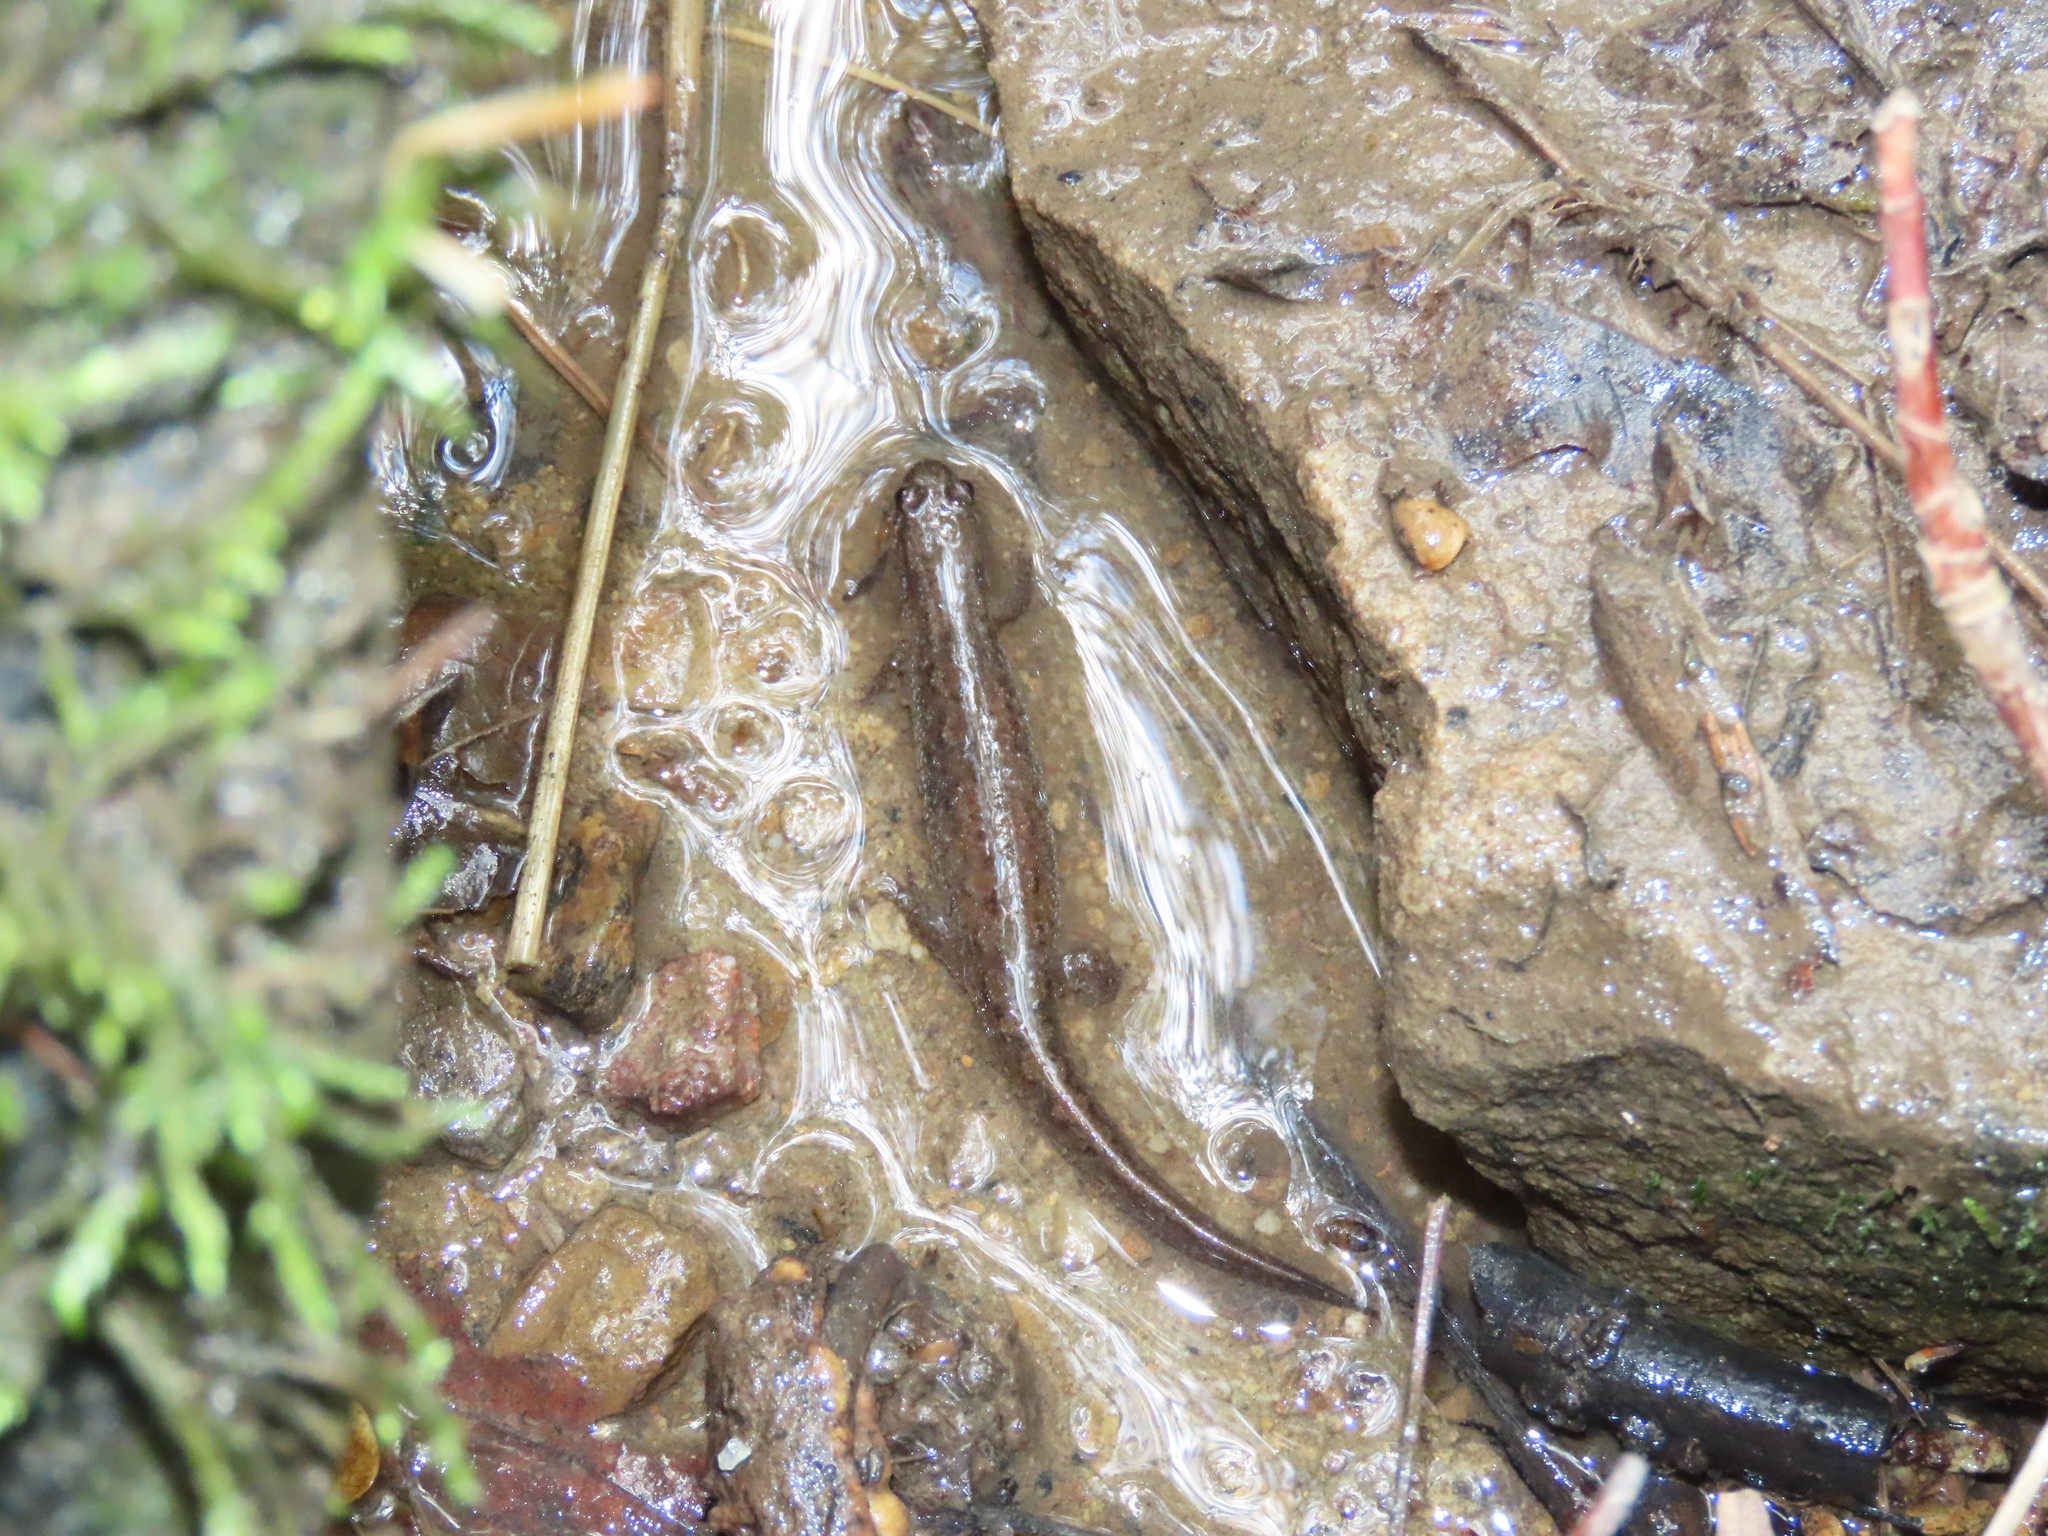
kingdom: Animalia
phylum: Chordata
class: Amphibia
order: Caudata
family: Plethodontidae
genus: Desmognathus
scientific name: Desmognathus fuscus
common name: Northern dusky salamander
